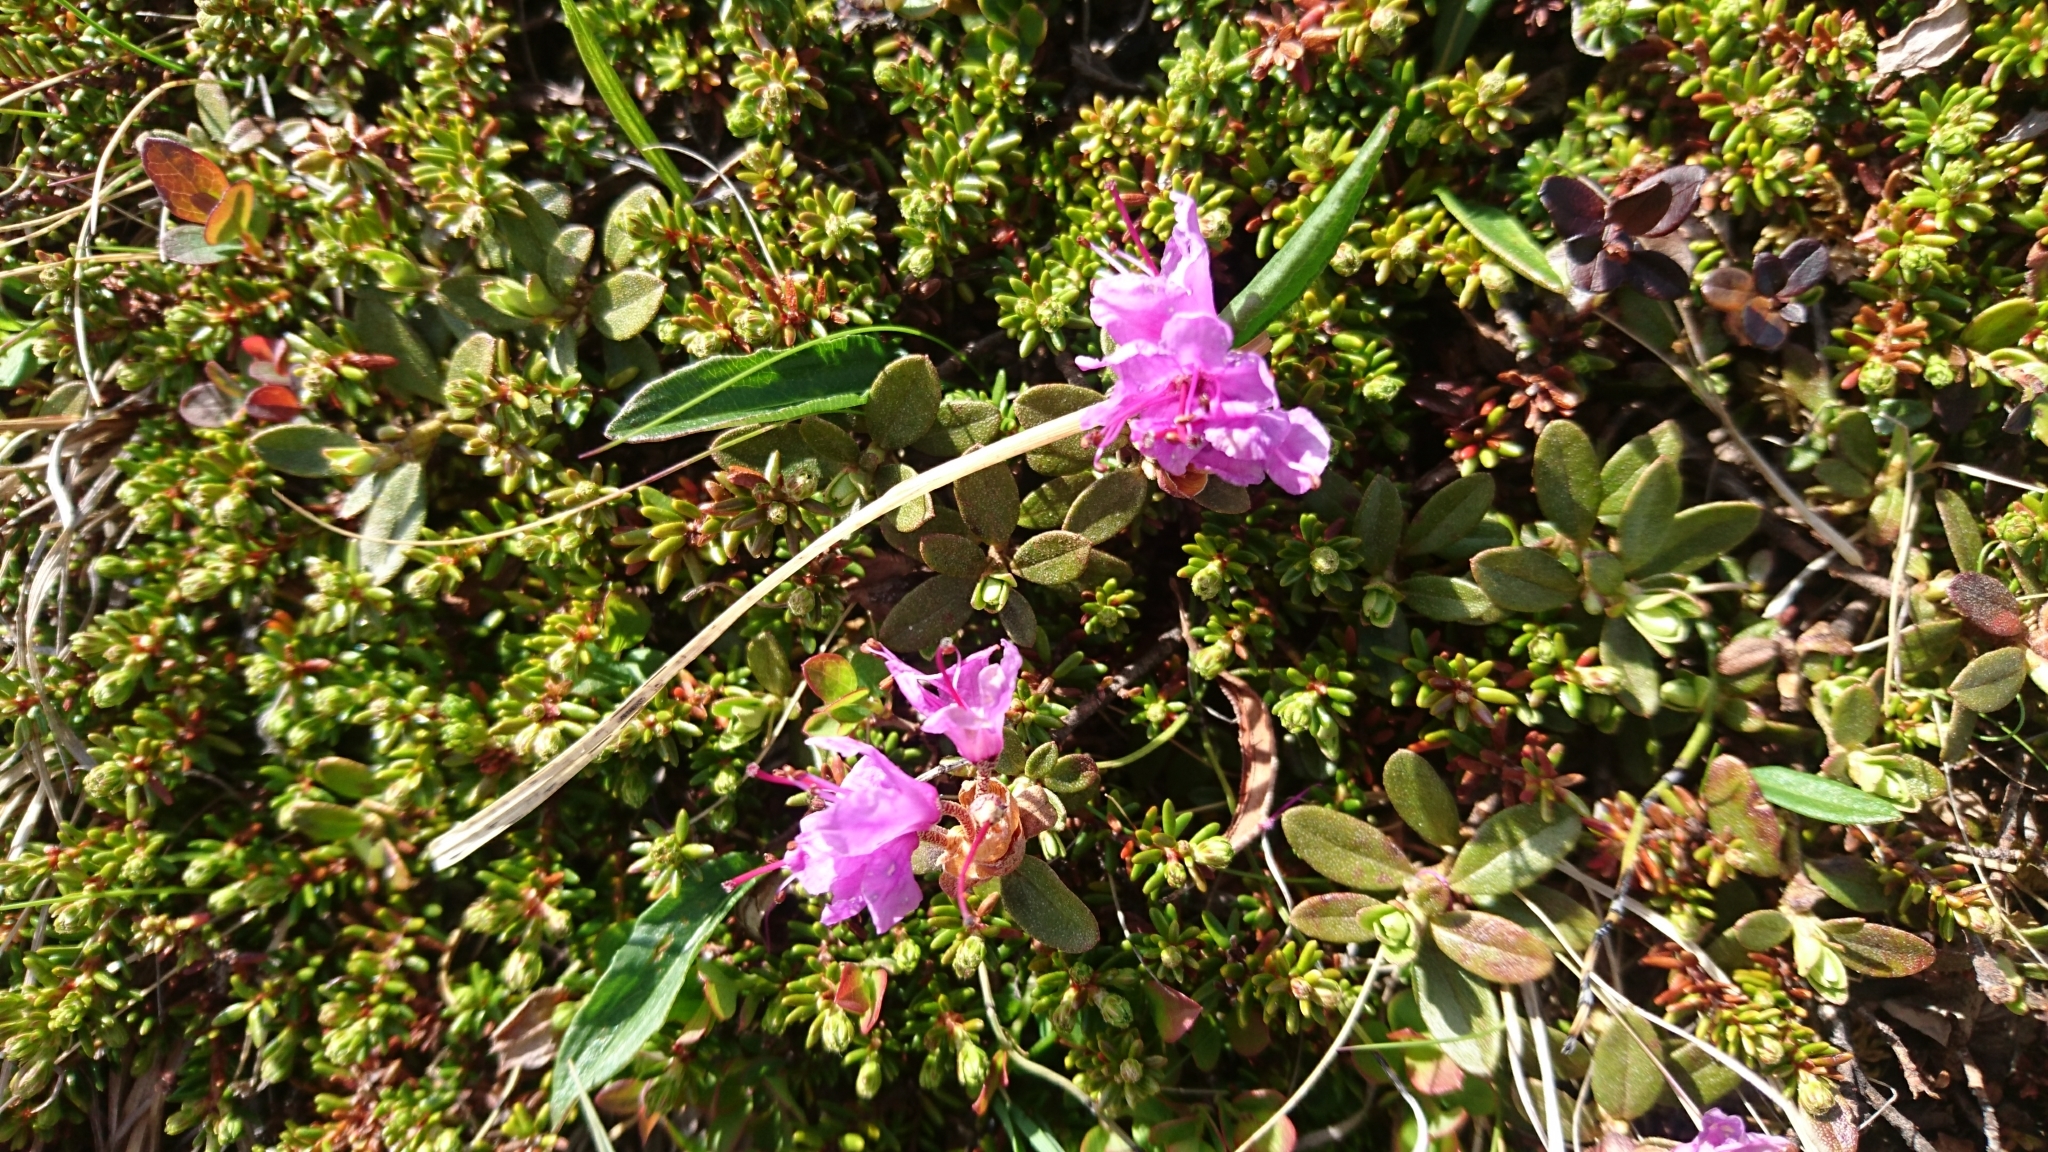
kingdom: Plantae
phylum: Tracheophyta
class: Magnoliopsida
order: Ericales
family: Ericaceae
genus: Rhododendron
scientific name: Rhododendron lapponicum
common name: Lapland rhododendron
